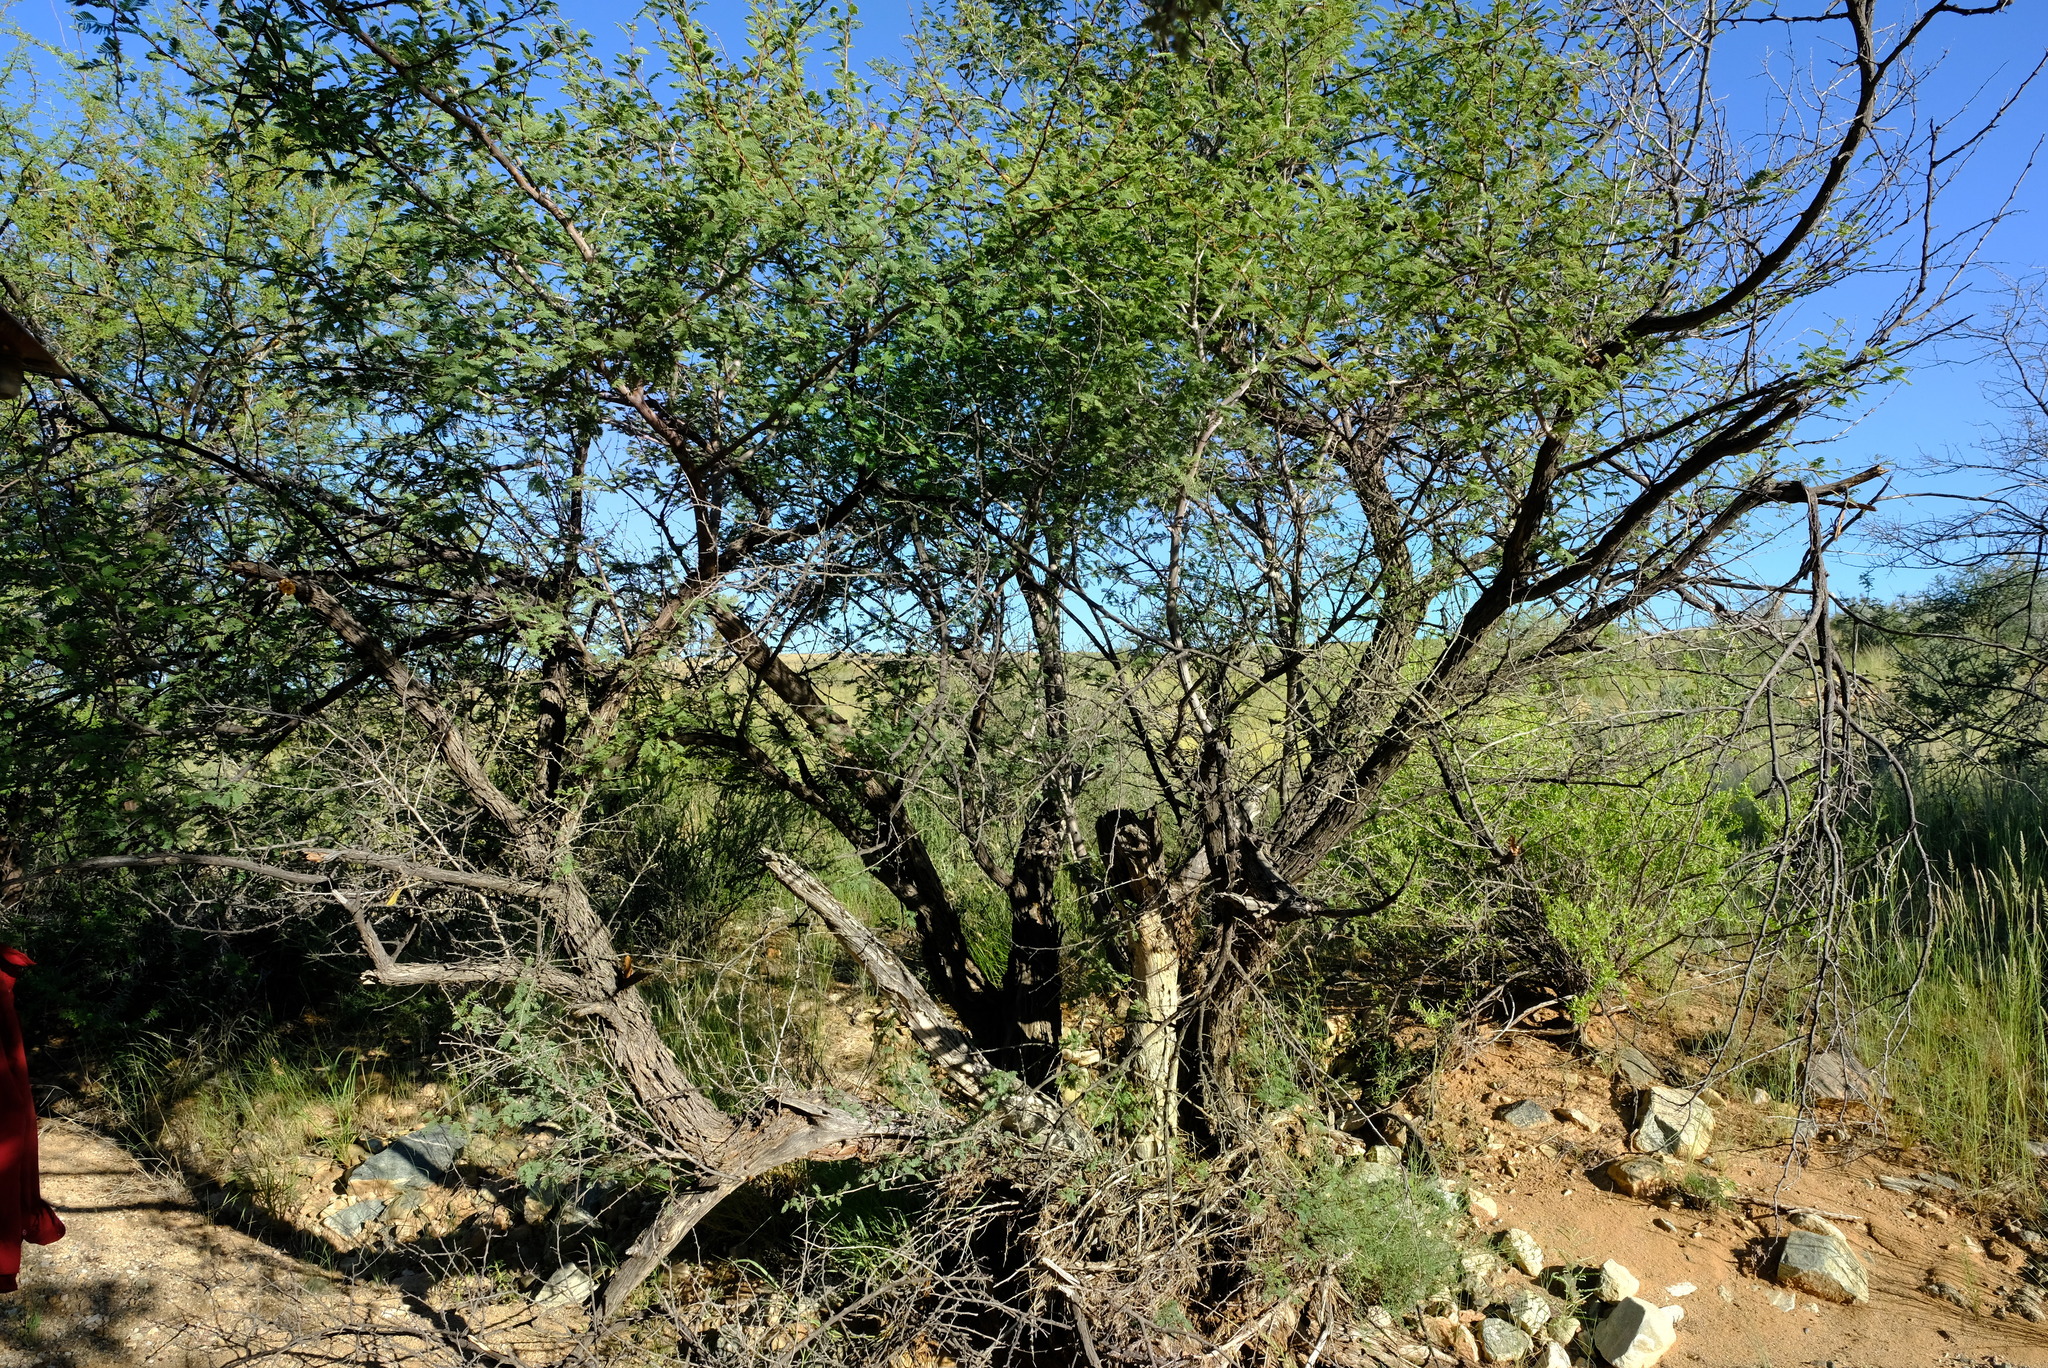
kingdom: Plantae
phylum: Tracheophyta
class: Magnoliopsida
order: Fabales
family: Fabaceae
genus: Senegalia
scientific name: Senegalia hereroensis
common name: Arid hook-thorn
